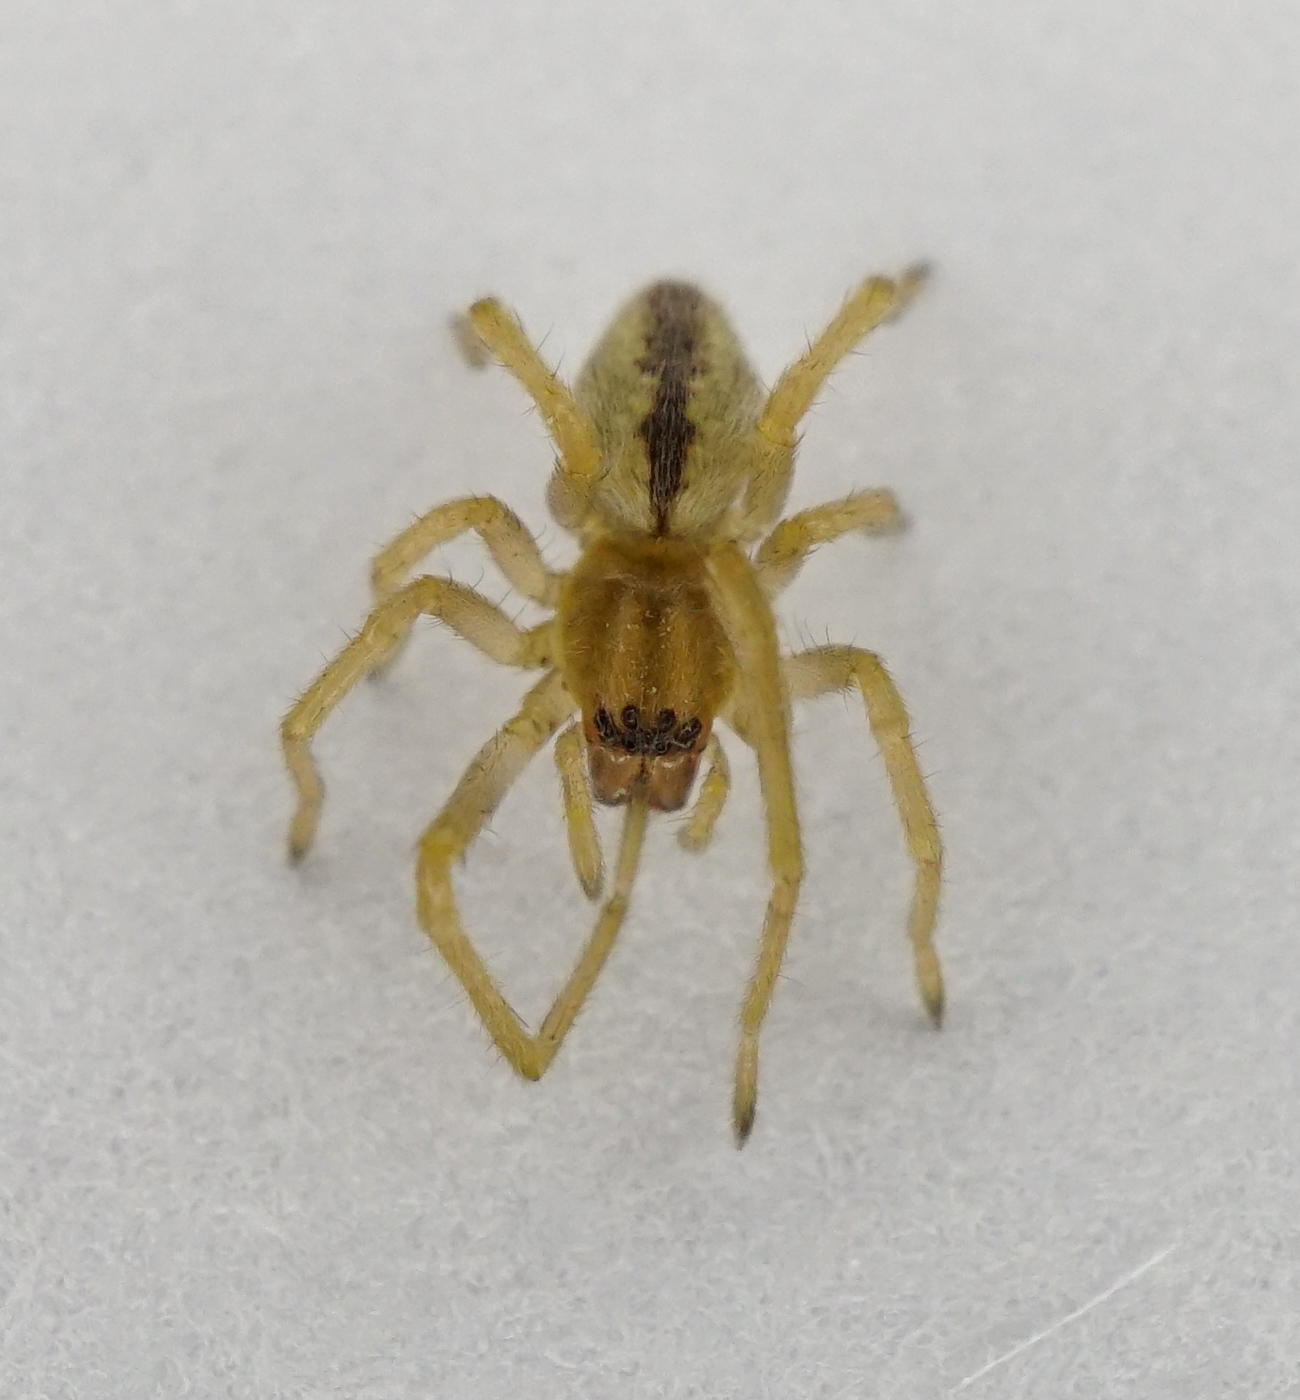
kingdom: Animalia
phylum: Arthropoda
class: Arachnida
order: Araneae
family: Cheiracanthiidae
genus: Cheiracanthium
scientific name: Cheiracanthium
